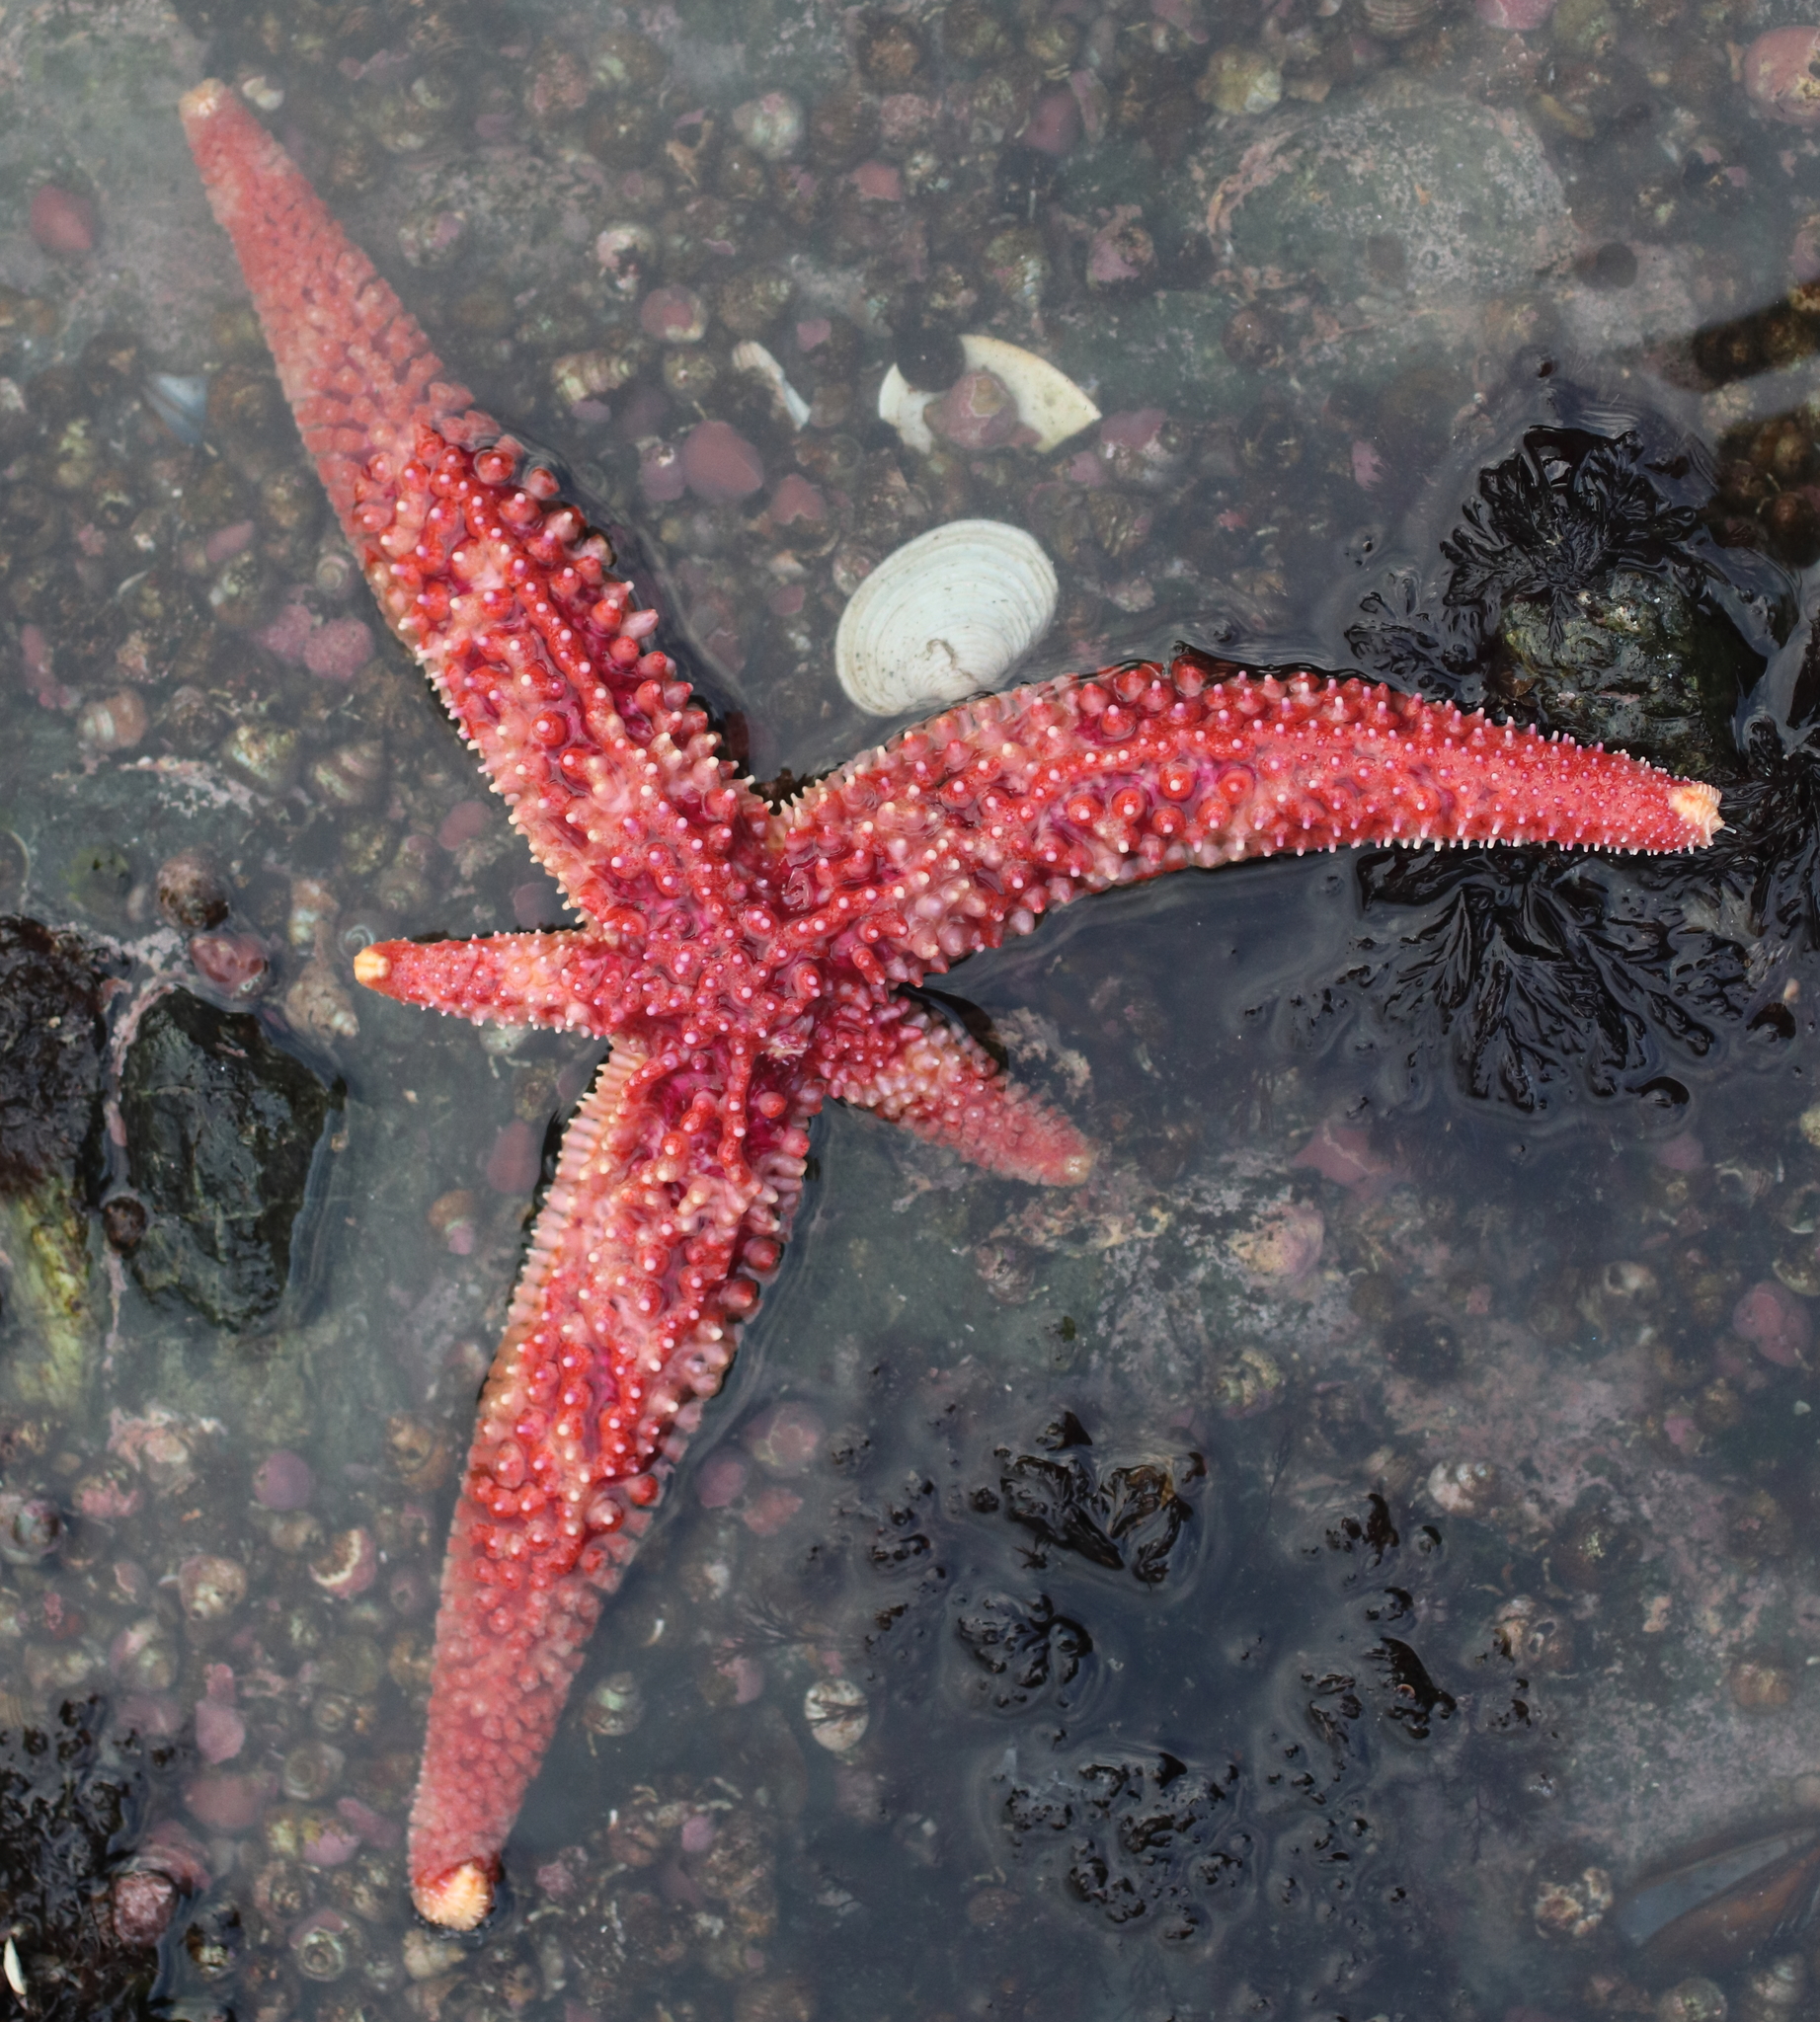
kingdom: Animalia
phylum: Echinodermata
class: Asteroidea
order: Forcipulatida
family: Asteriidae
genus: Orthasterias
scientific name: Orthasterias koehleri
